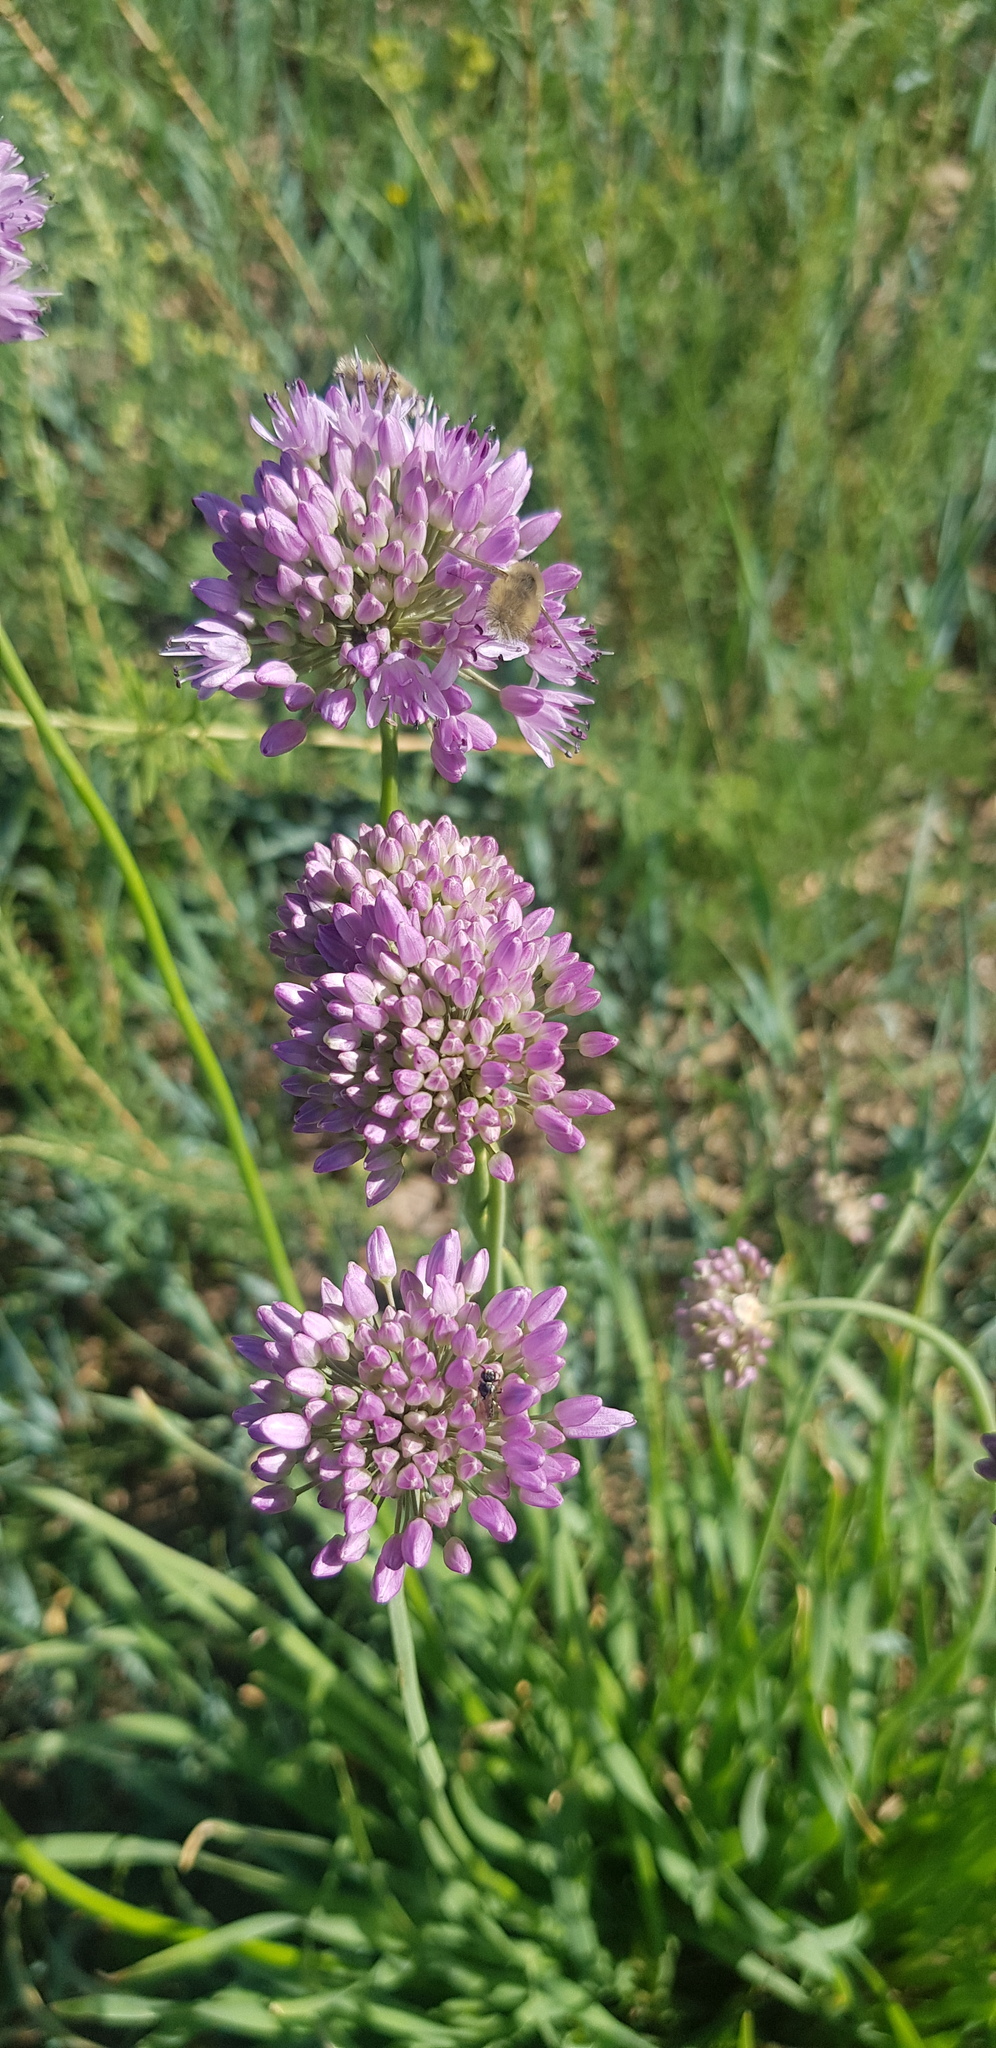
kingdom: Plantae
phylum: Tracheophyta
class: Liliopsida
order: Asparagales
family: Amaryllidaceae
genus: Allium
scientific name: Allium senescens
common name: German garlic
